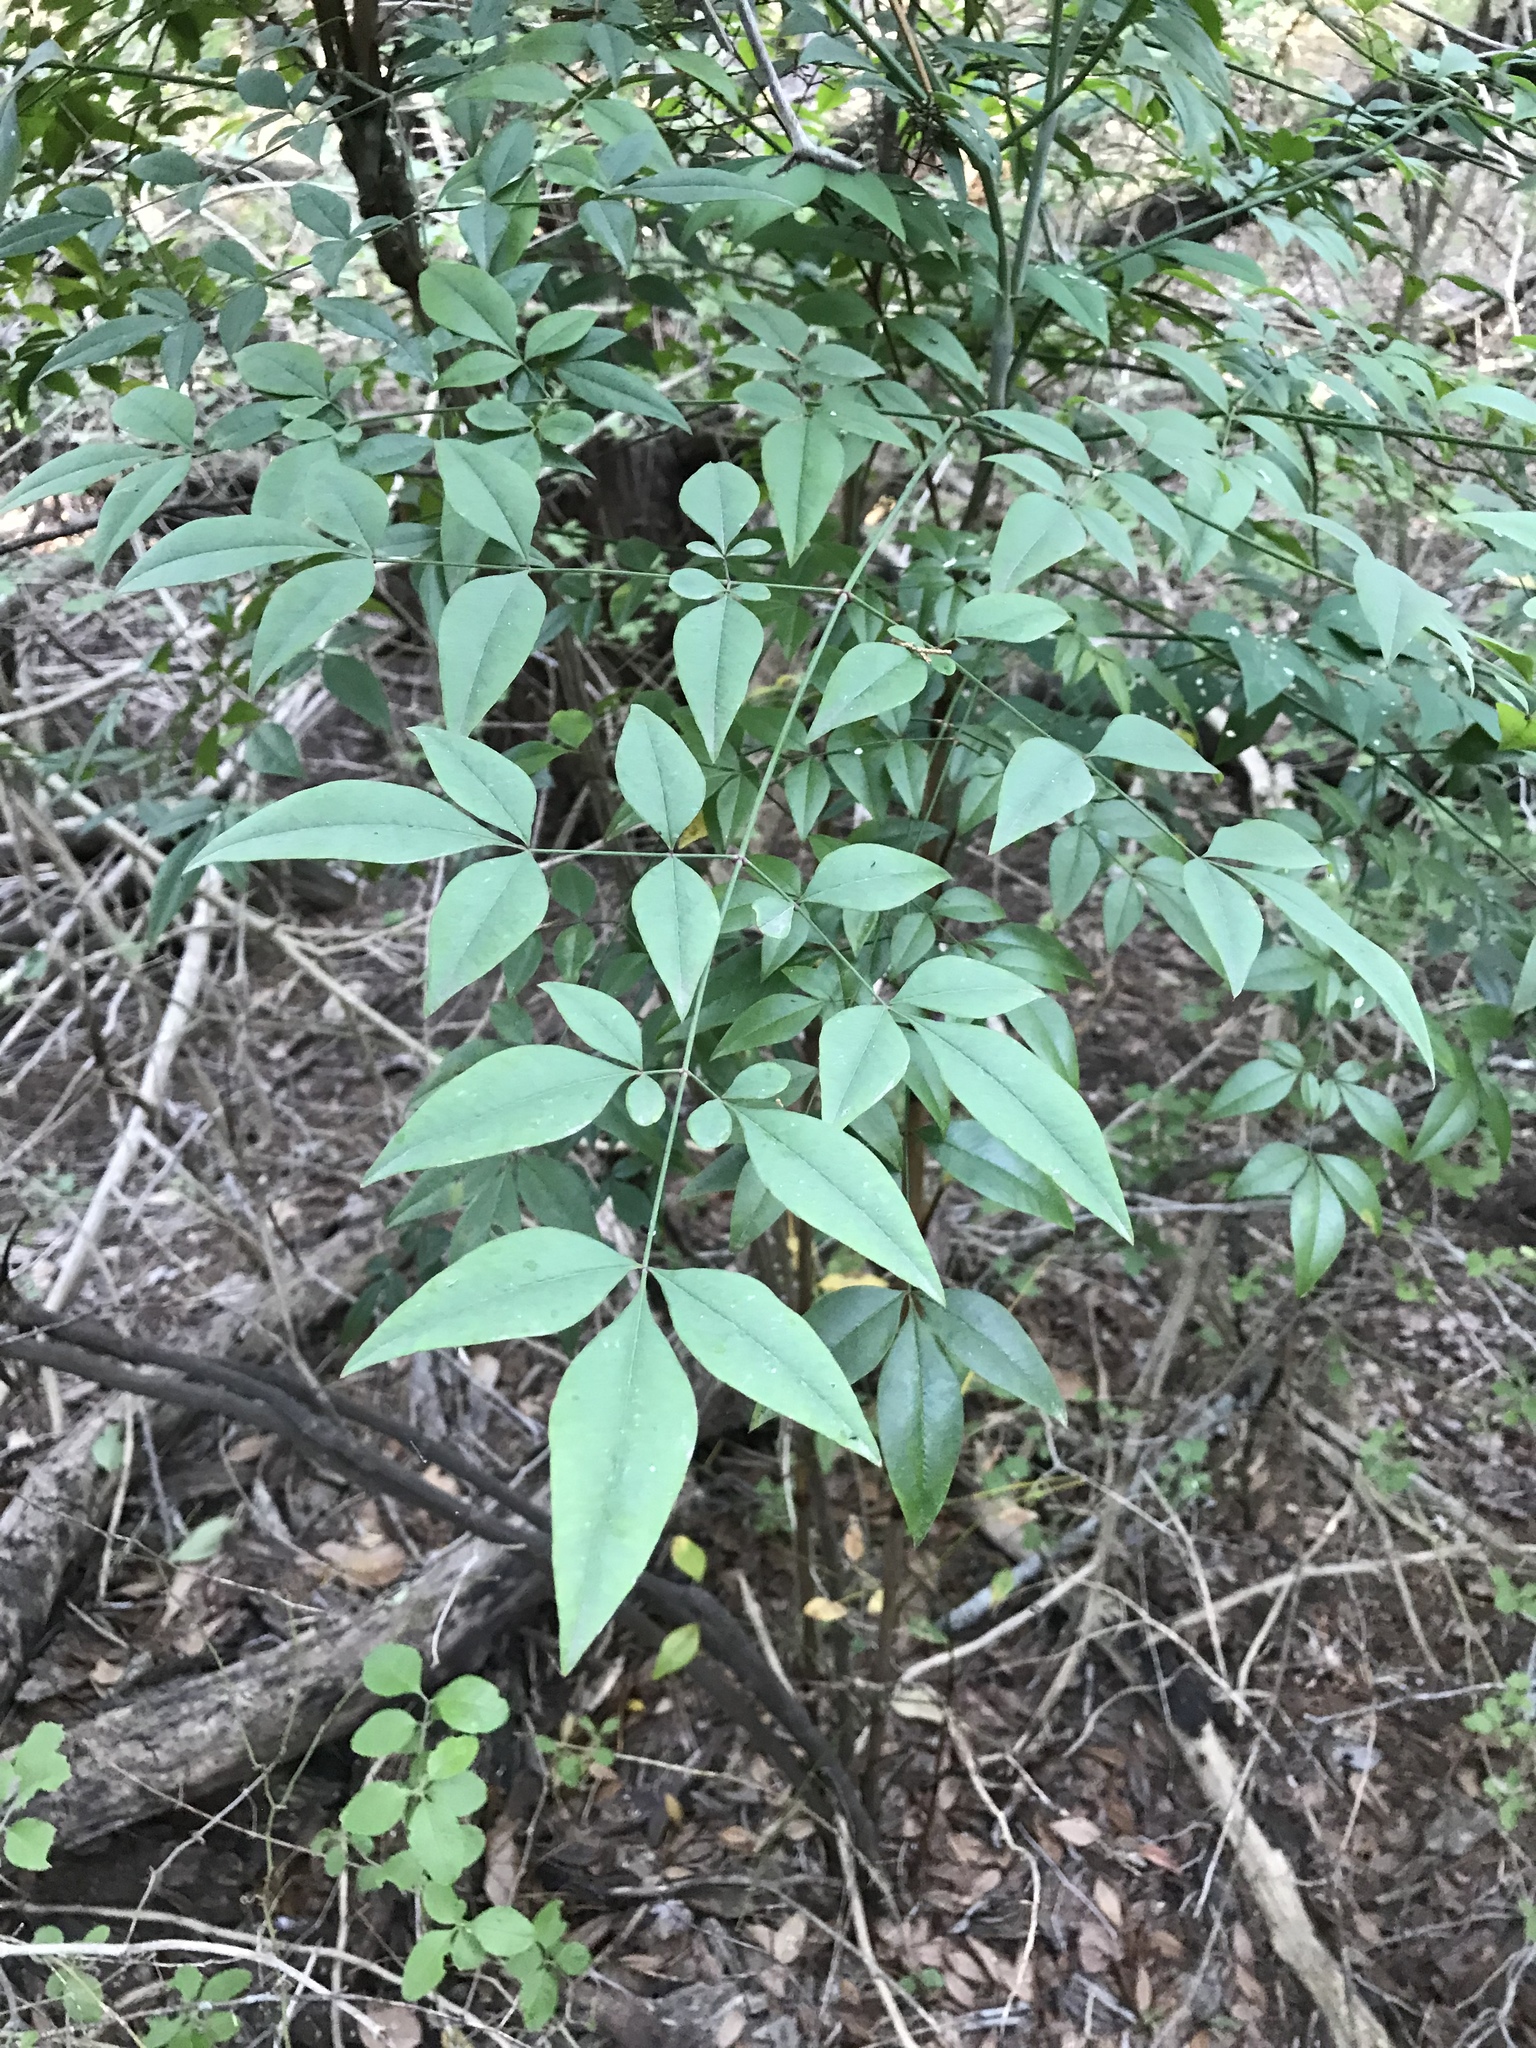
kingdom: Plantae
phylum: Tracheophyta
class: Magnoliopsida
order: Ranunculales
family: Berberidaceae
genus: Nandina
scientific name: Nandina domestica
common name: Sacred bamboo
